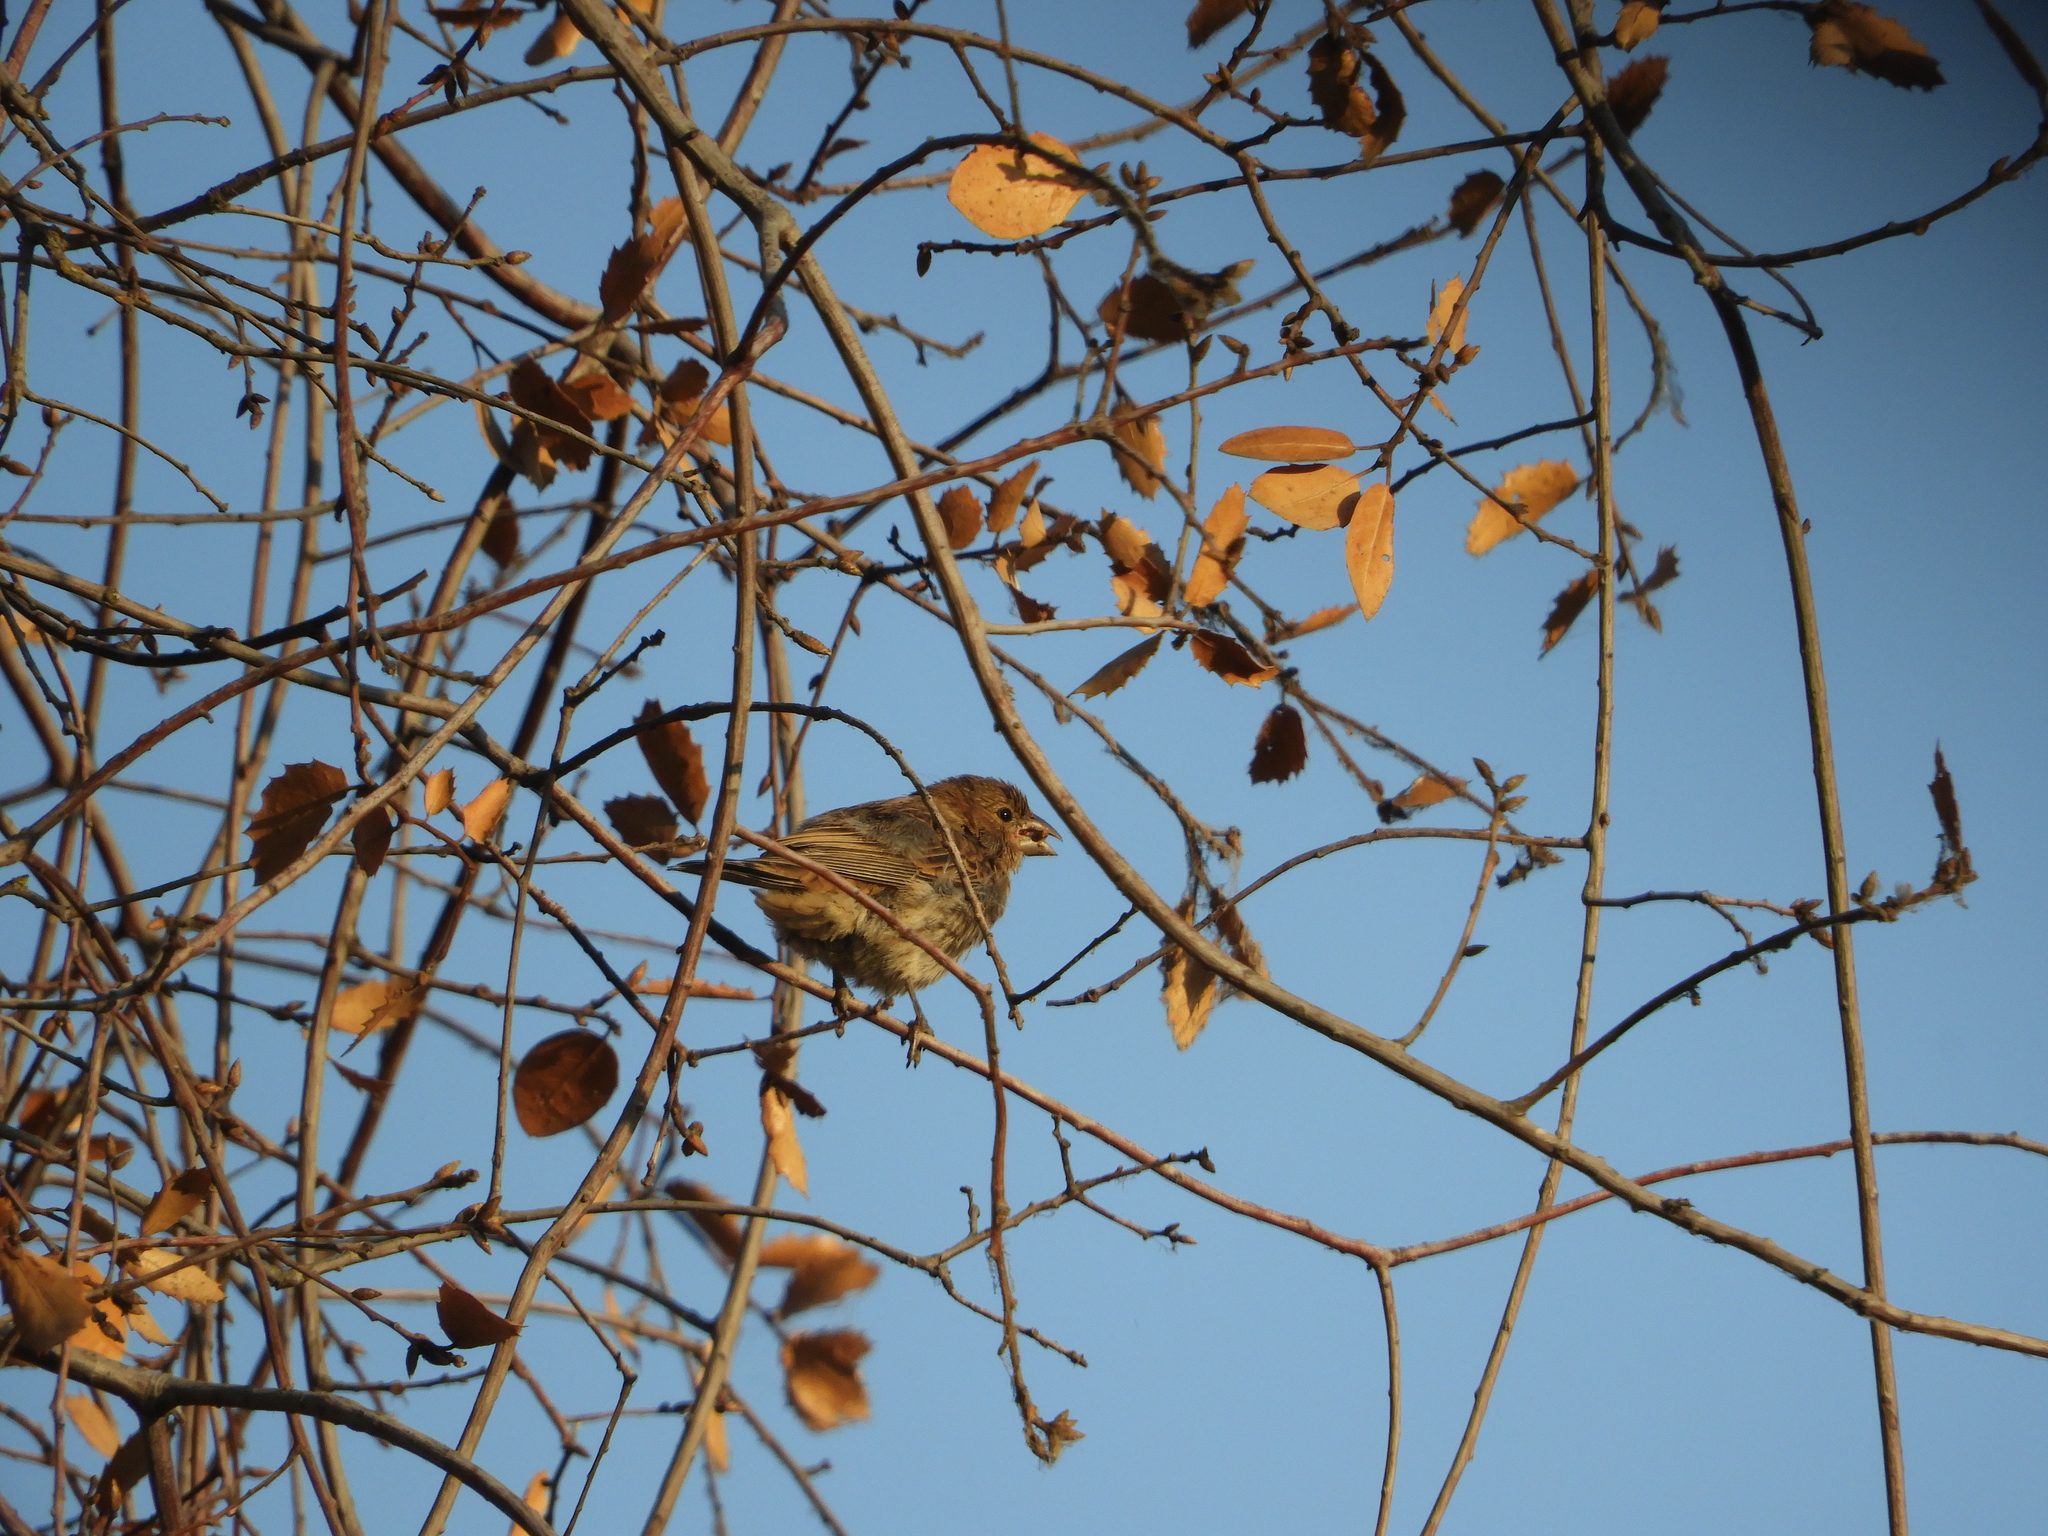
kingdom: Animalia
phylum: Chordata
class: Aves
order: Passeriformes
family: Fringillidae
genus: Haemorhous
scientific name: Haemorhous mexicanus
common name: House finch
